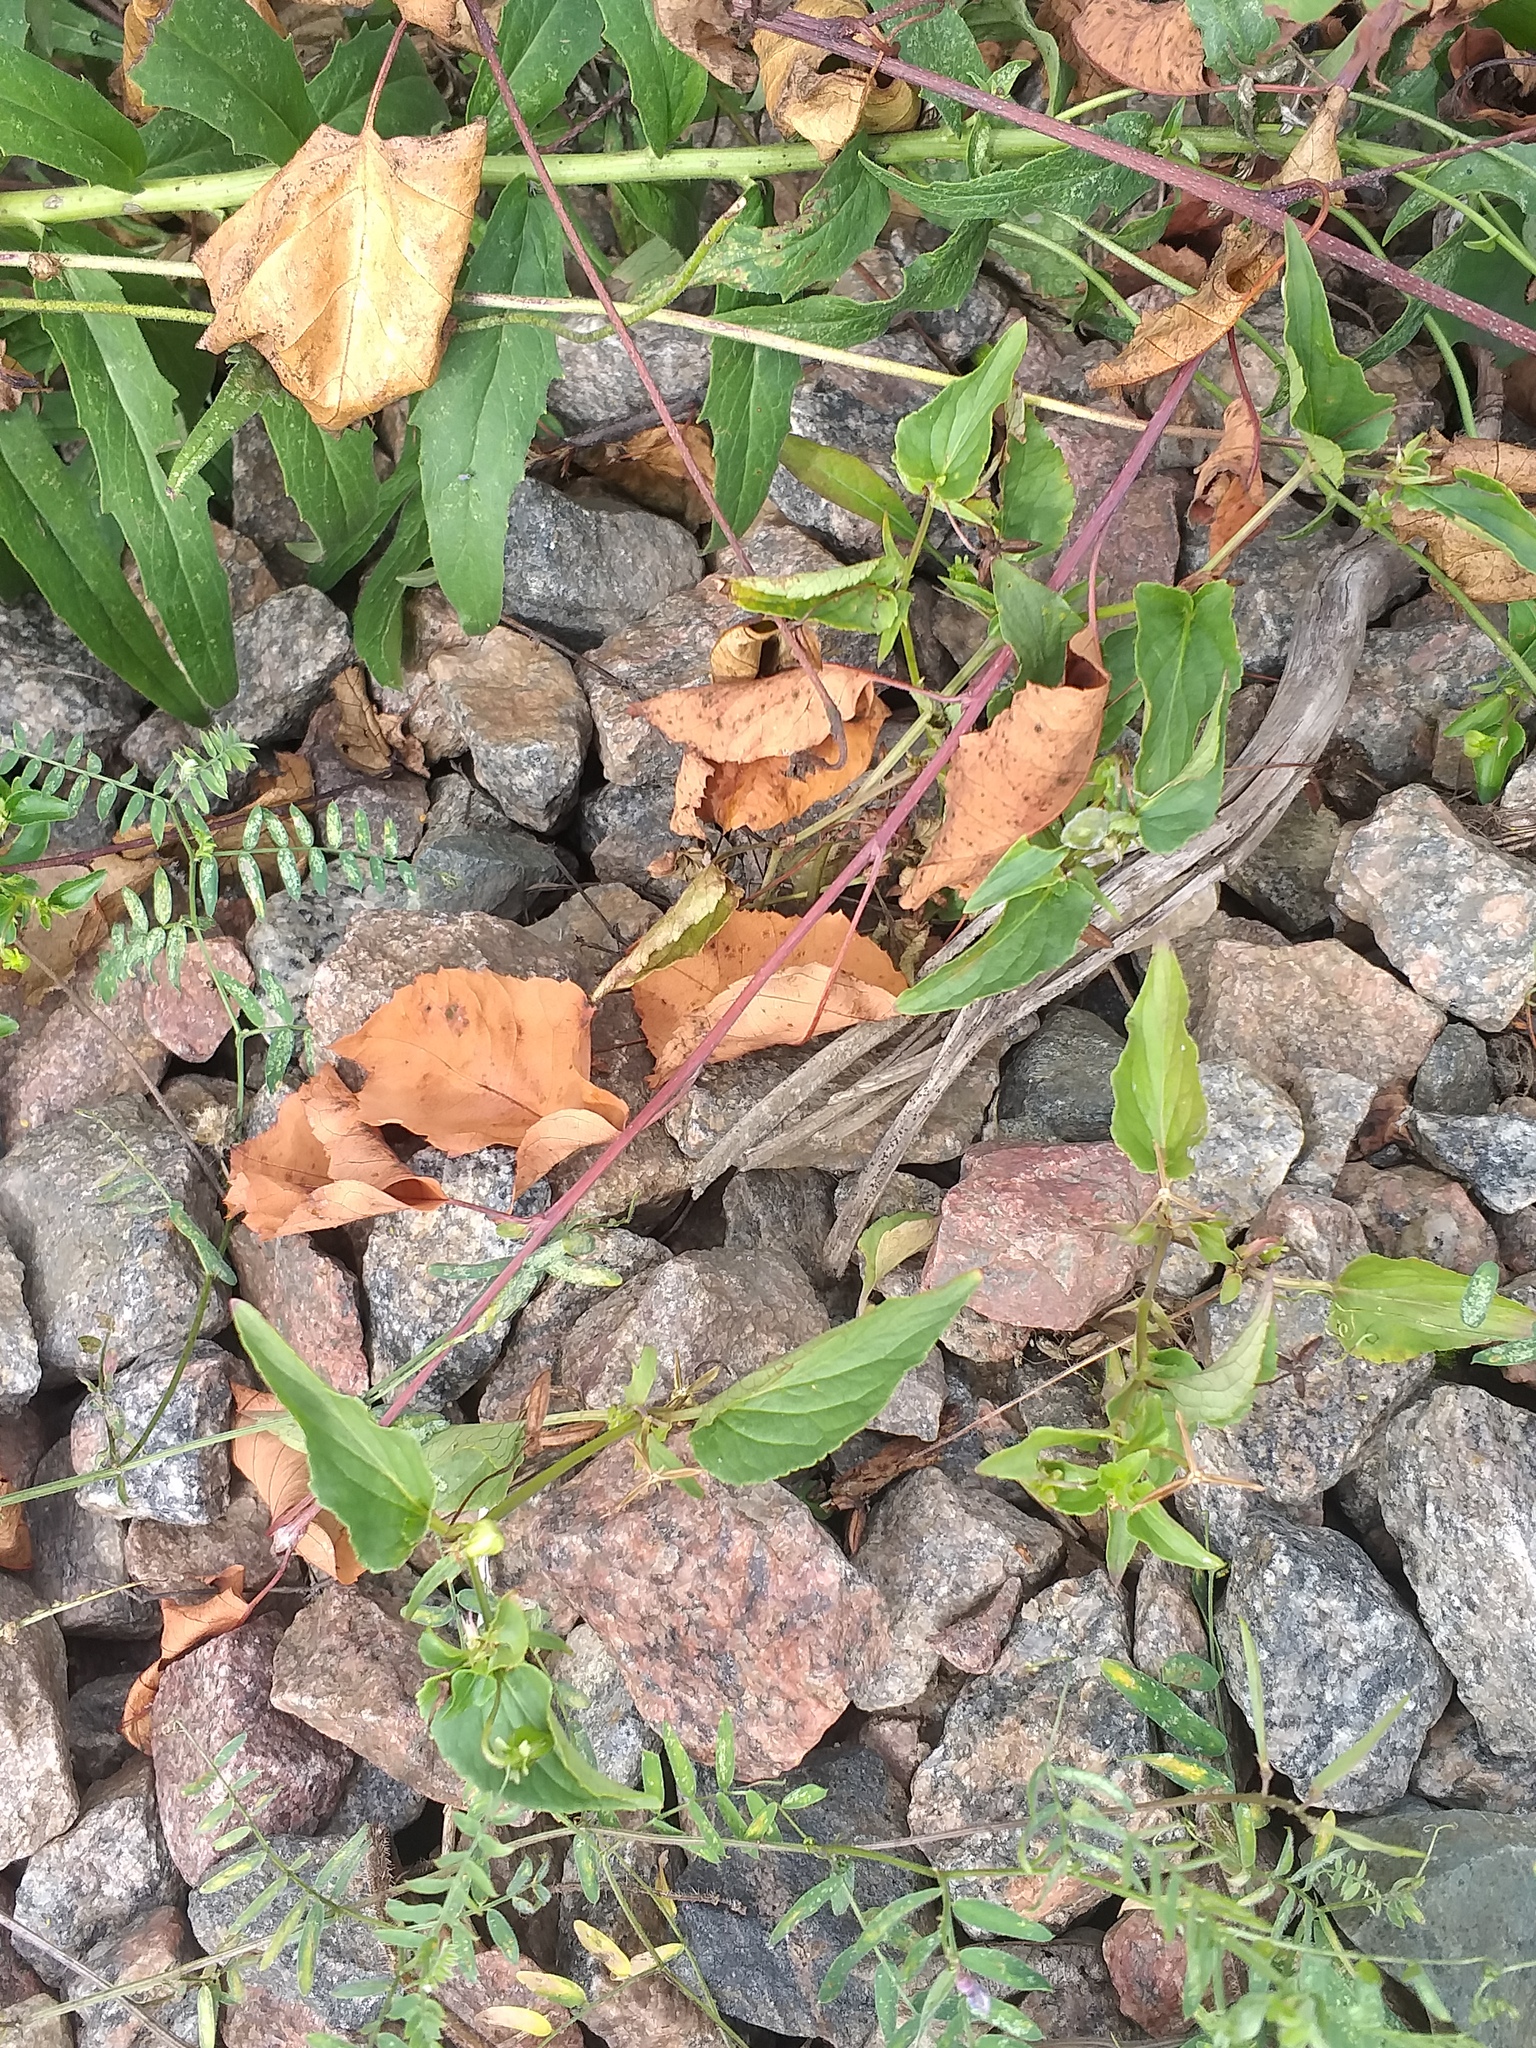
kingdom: Plantae
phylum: Tracheophyta
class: Magnoliopsida
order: Malpighiales
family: Violaceae
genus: Viola
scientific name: Viola
